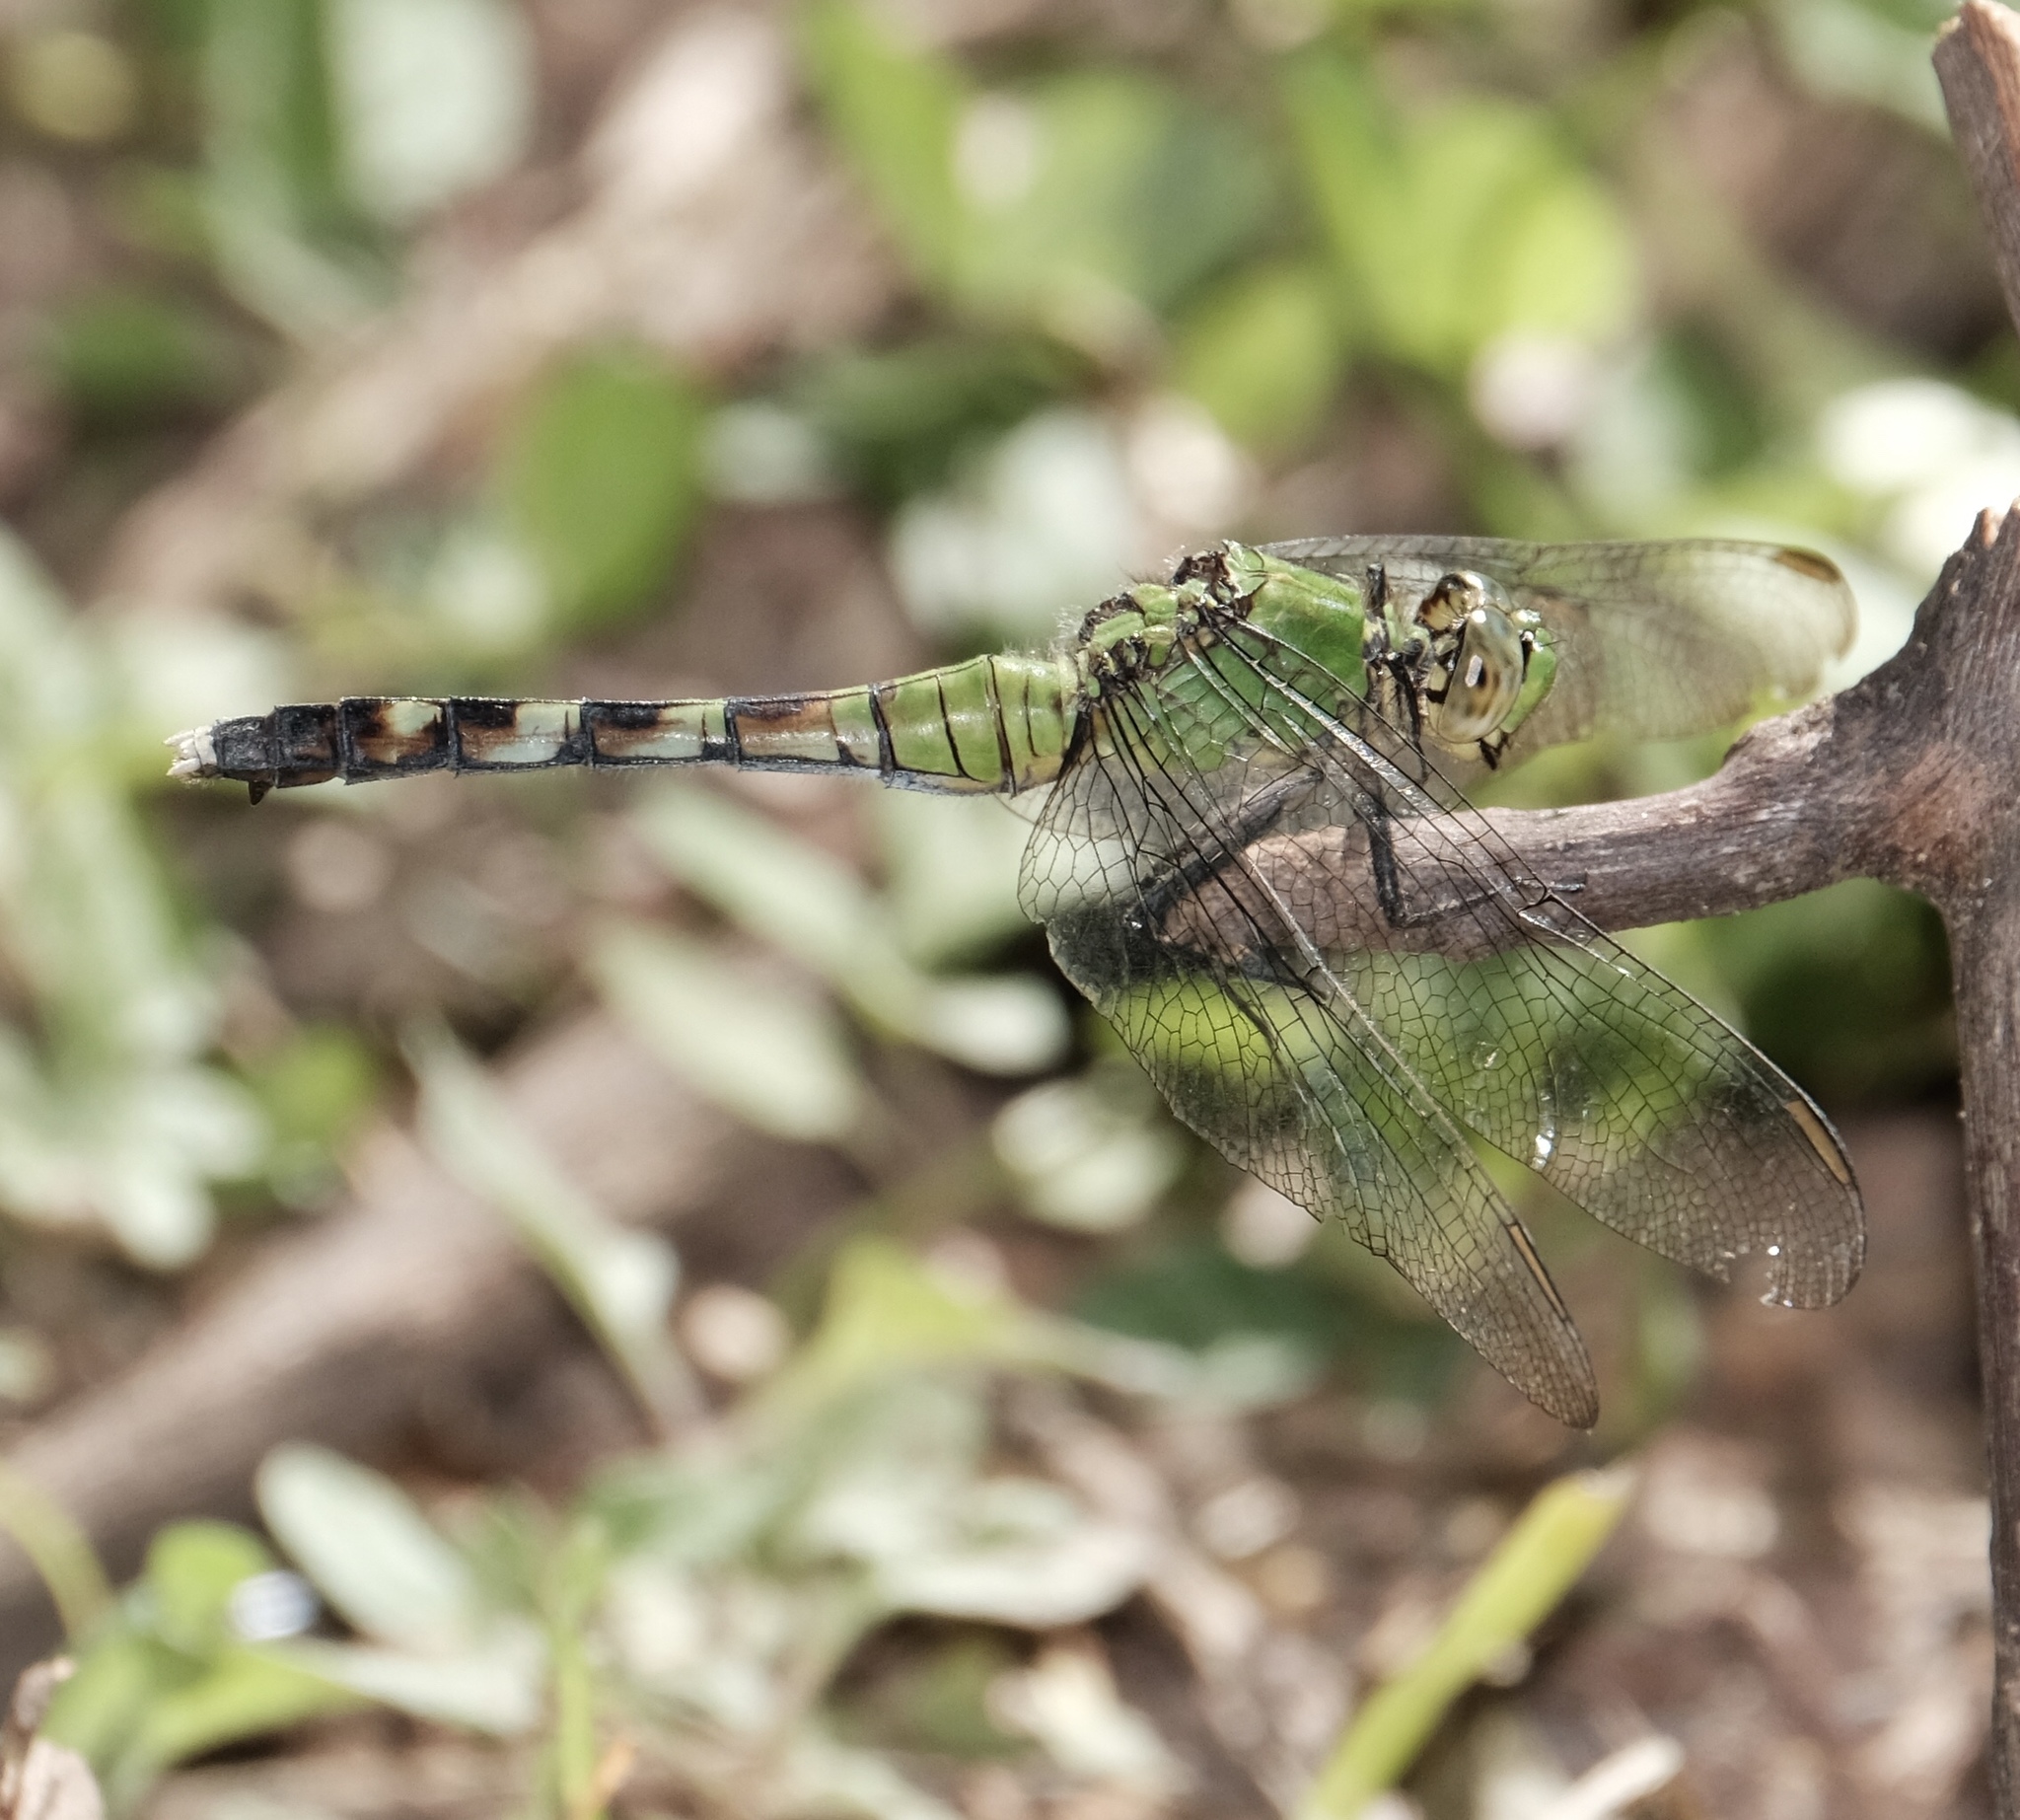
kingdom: Animalia
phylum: Arthropoda
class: Insecta
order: Odonata
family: Libellulidae
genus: Erythemis
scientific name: Erythemis simplicicollis
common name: Eastern pondhawk
